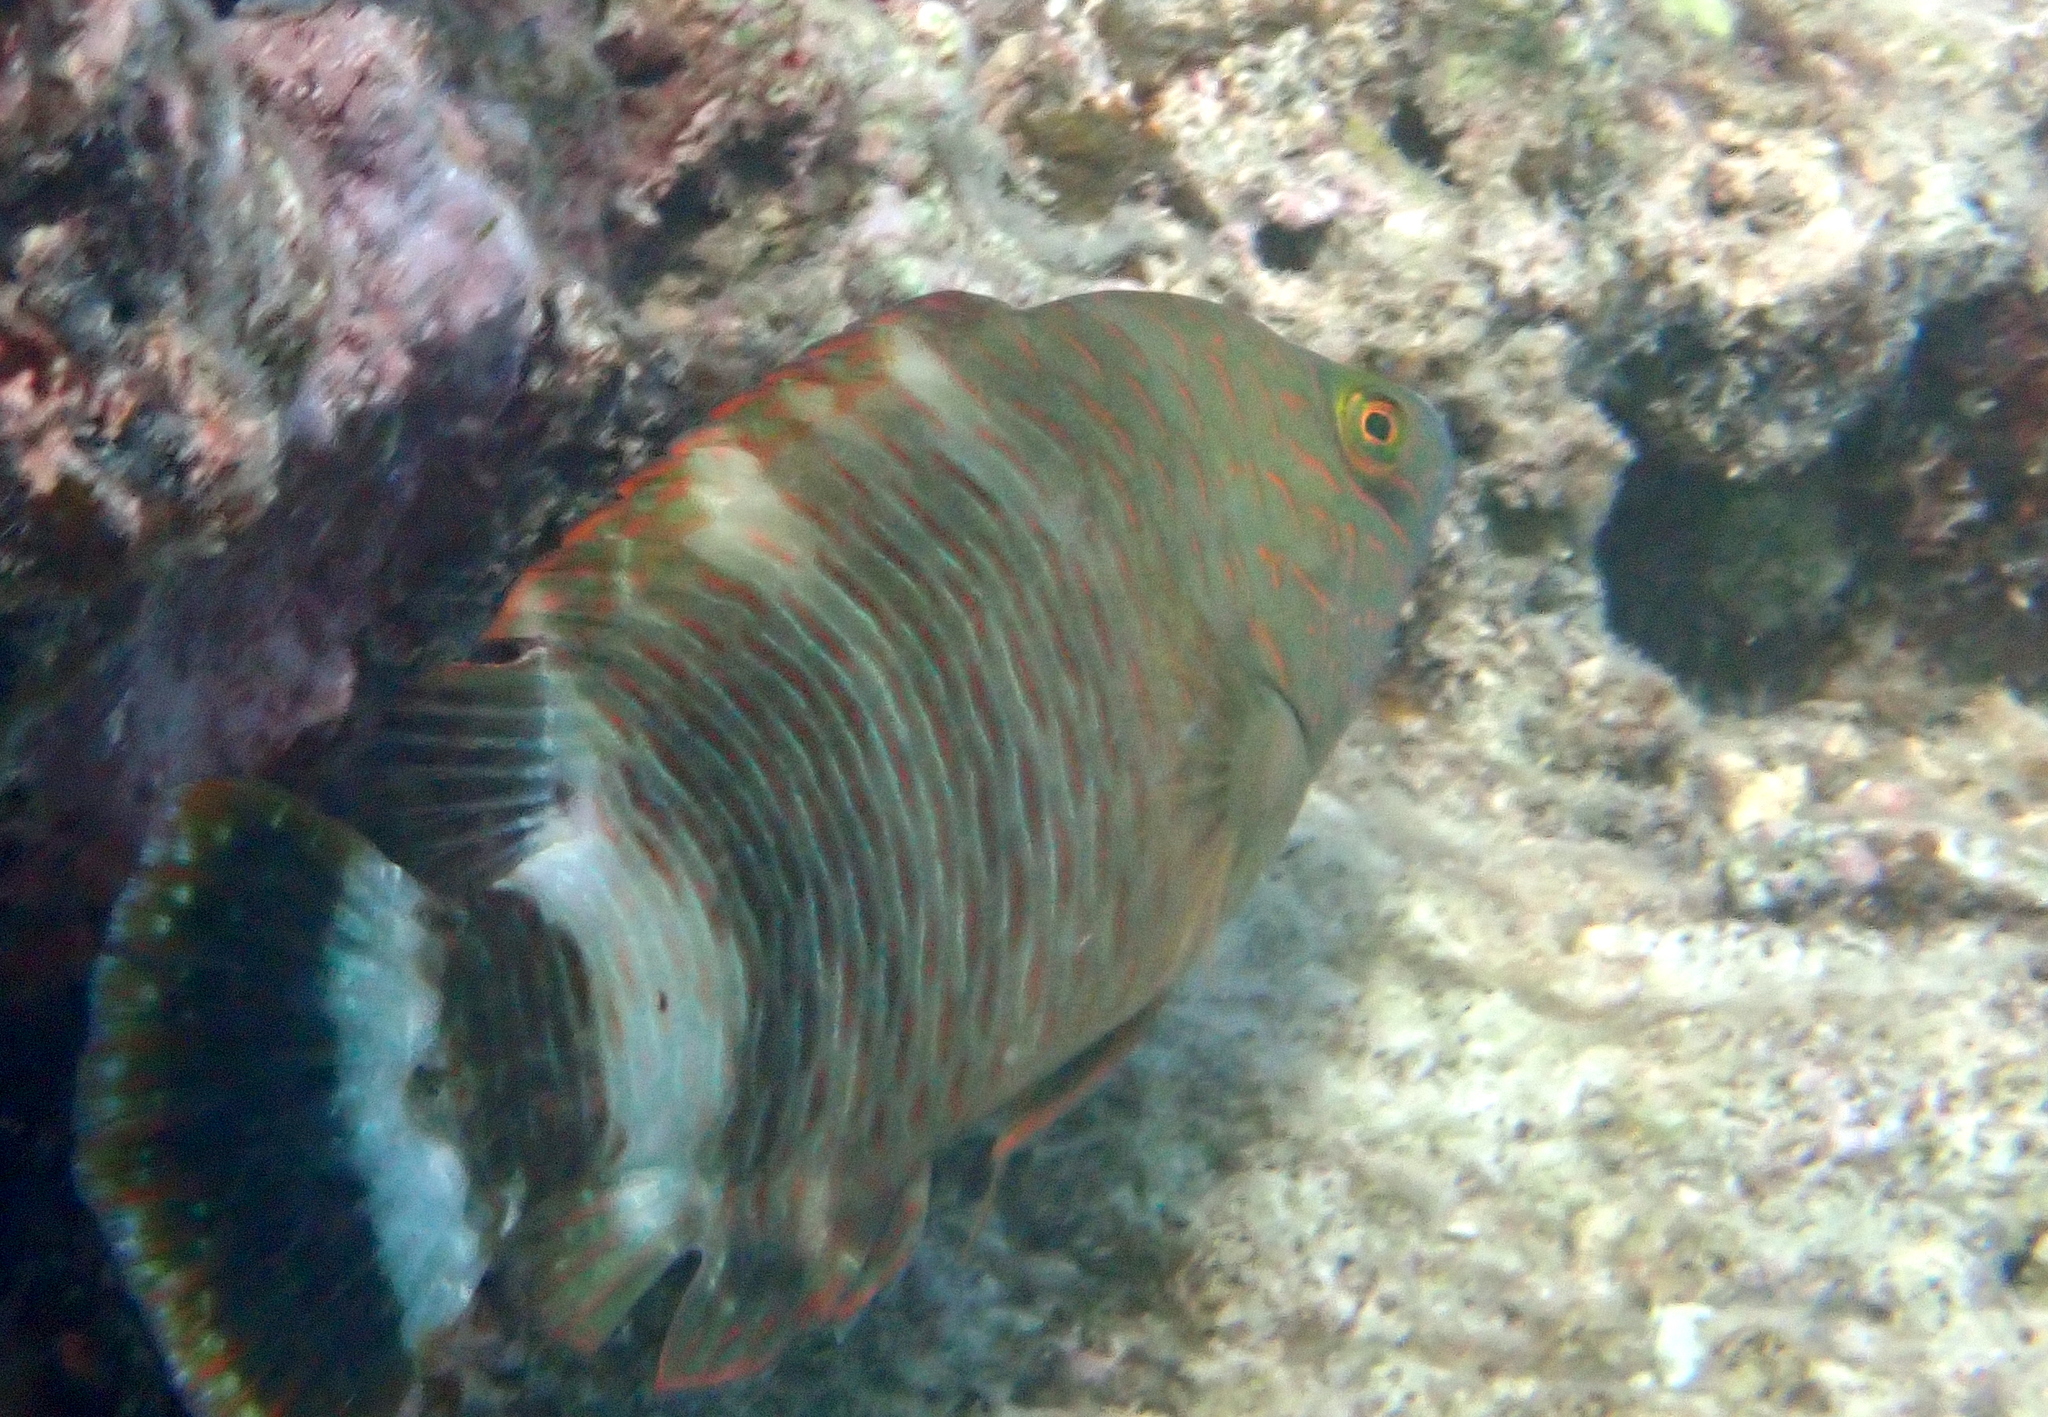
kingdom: Animalia
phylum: Chordata
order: Perciformes
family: Labridae
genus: Cheilinus
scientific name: Cheilinus trilobatus
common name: Tripletail maori wrasse
